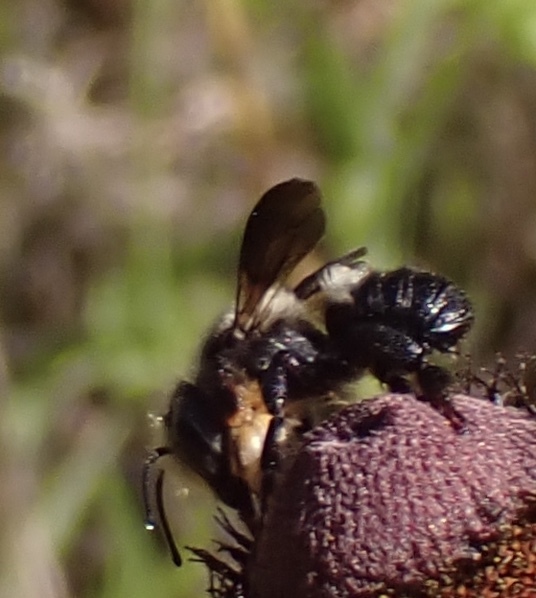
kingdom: Animalia
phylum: Arthropoda
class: Insecta
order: Hymenoptera
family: Megachilidae
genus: Megachile
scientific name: Megachile xylocopoides
